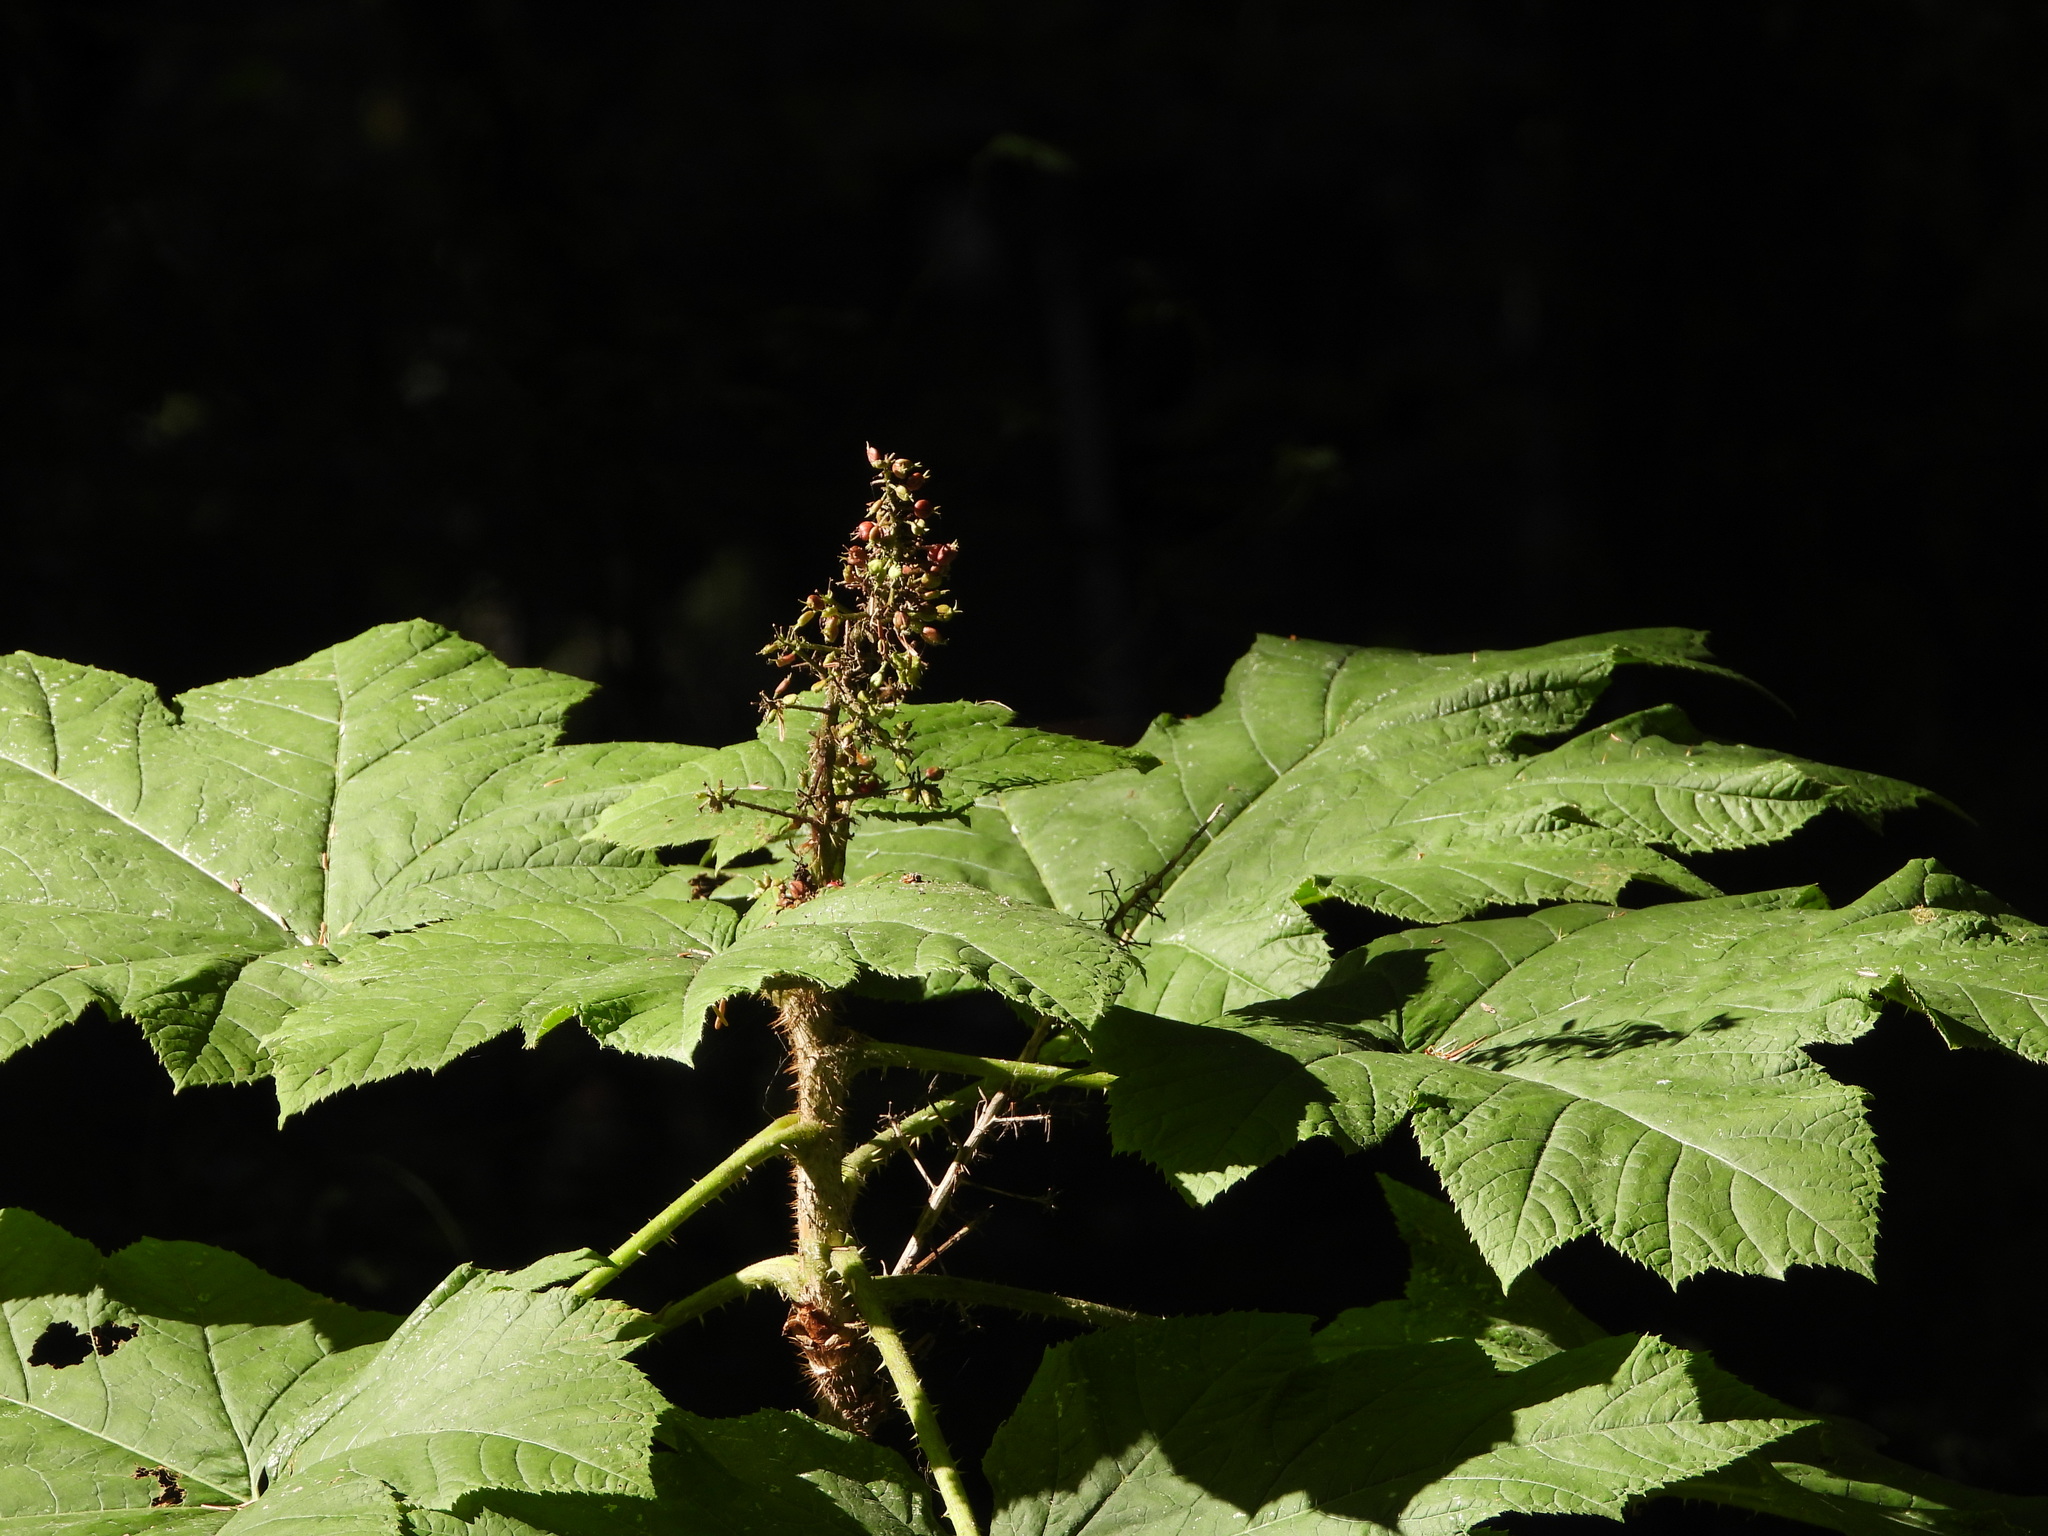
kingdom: Plantae
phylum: Tracheophyta
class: Magnoliopsida
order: Apiales
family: Araliaceae
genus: Oplopanax
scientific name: Oplopanax horridus
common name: Devil's walking-stick
